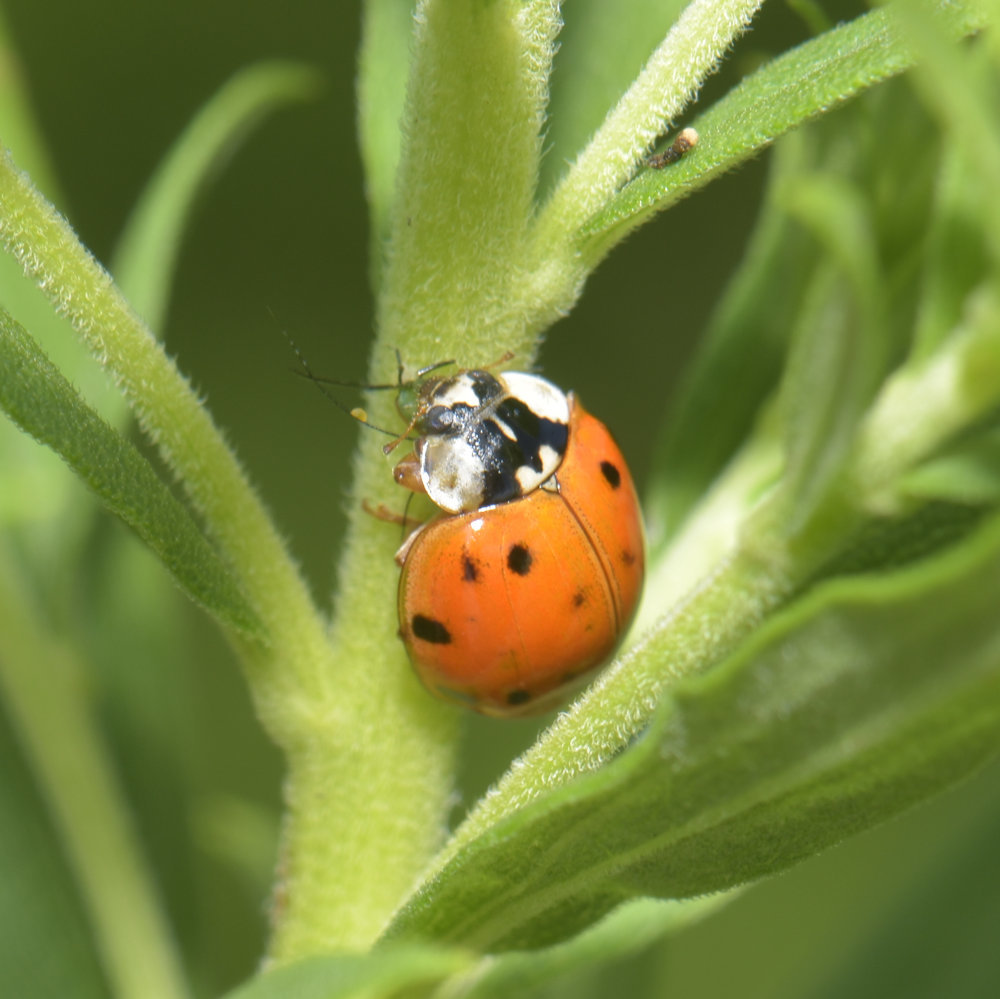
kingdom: Animalia
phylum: Arthropoda
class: Insecta
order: Coleoptera
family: Coccinellidae
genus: Harmonia
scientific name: Harmonia axyridis
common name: Harlequin ladybird
